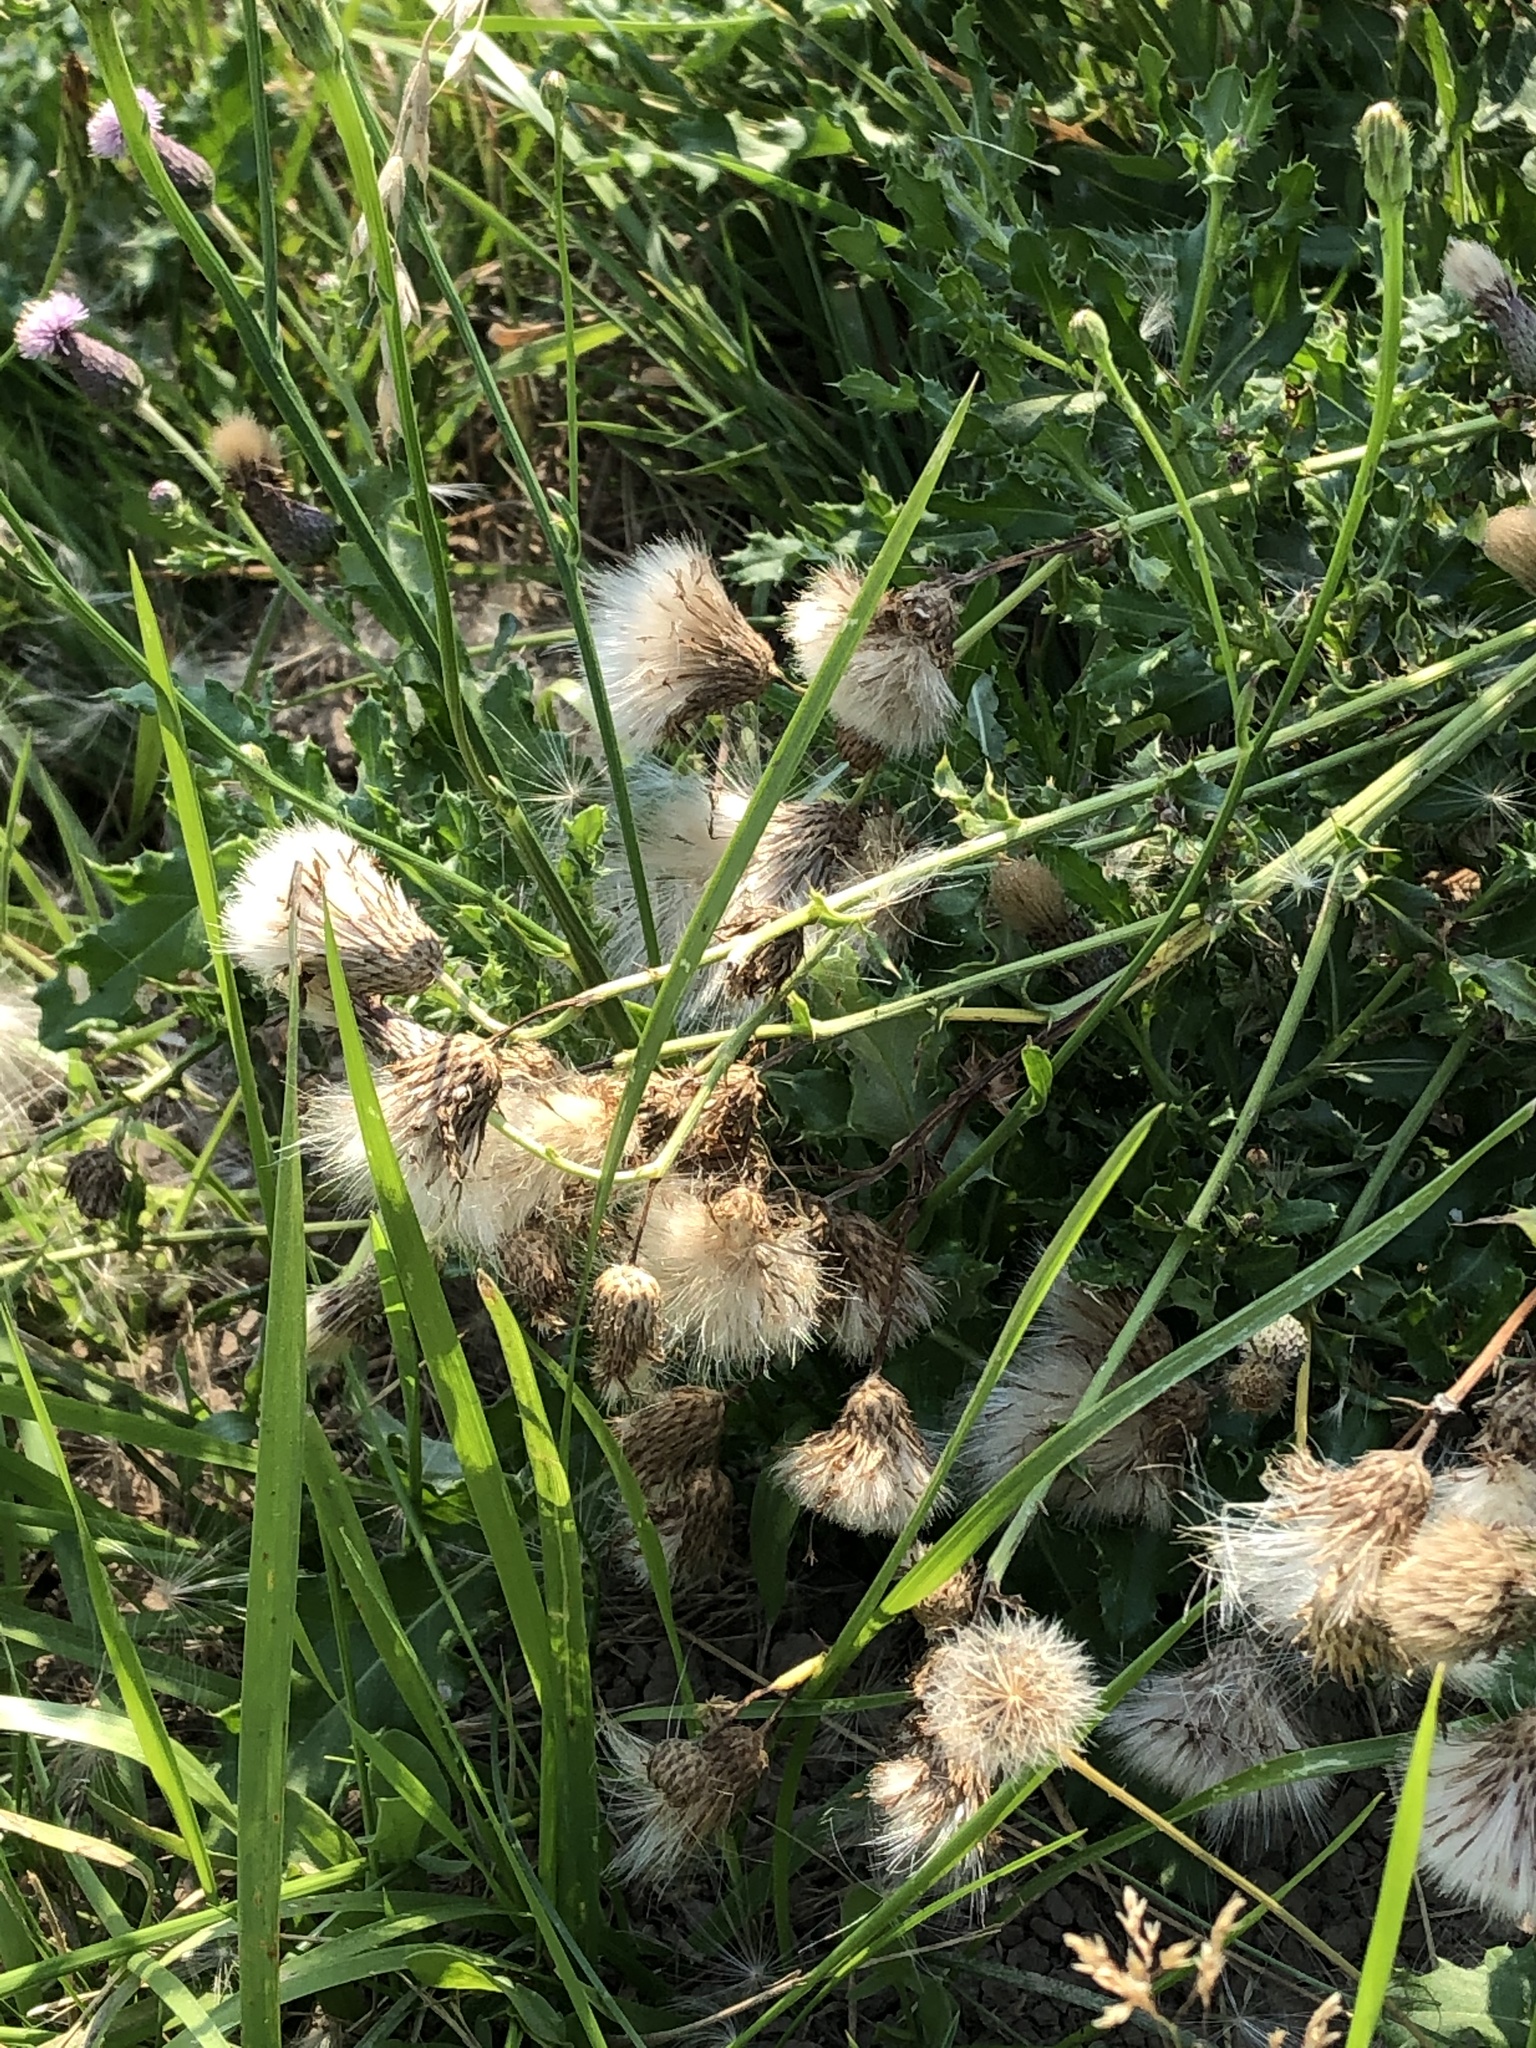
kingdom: Plantae
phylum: Tracheophyta
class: Magnoliopsida
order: Asterales
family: Asteraceae
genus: Cirsium
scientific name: Cirsium arvense
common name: Creeping thistle
